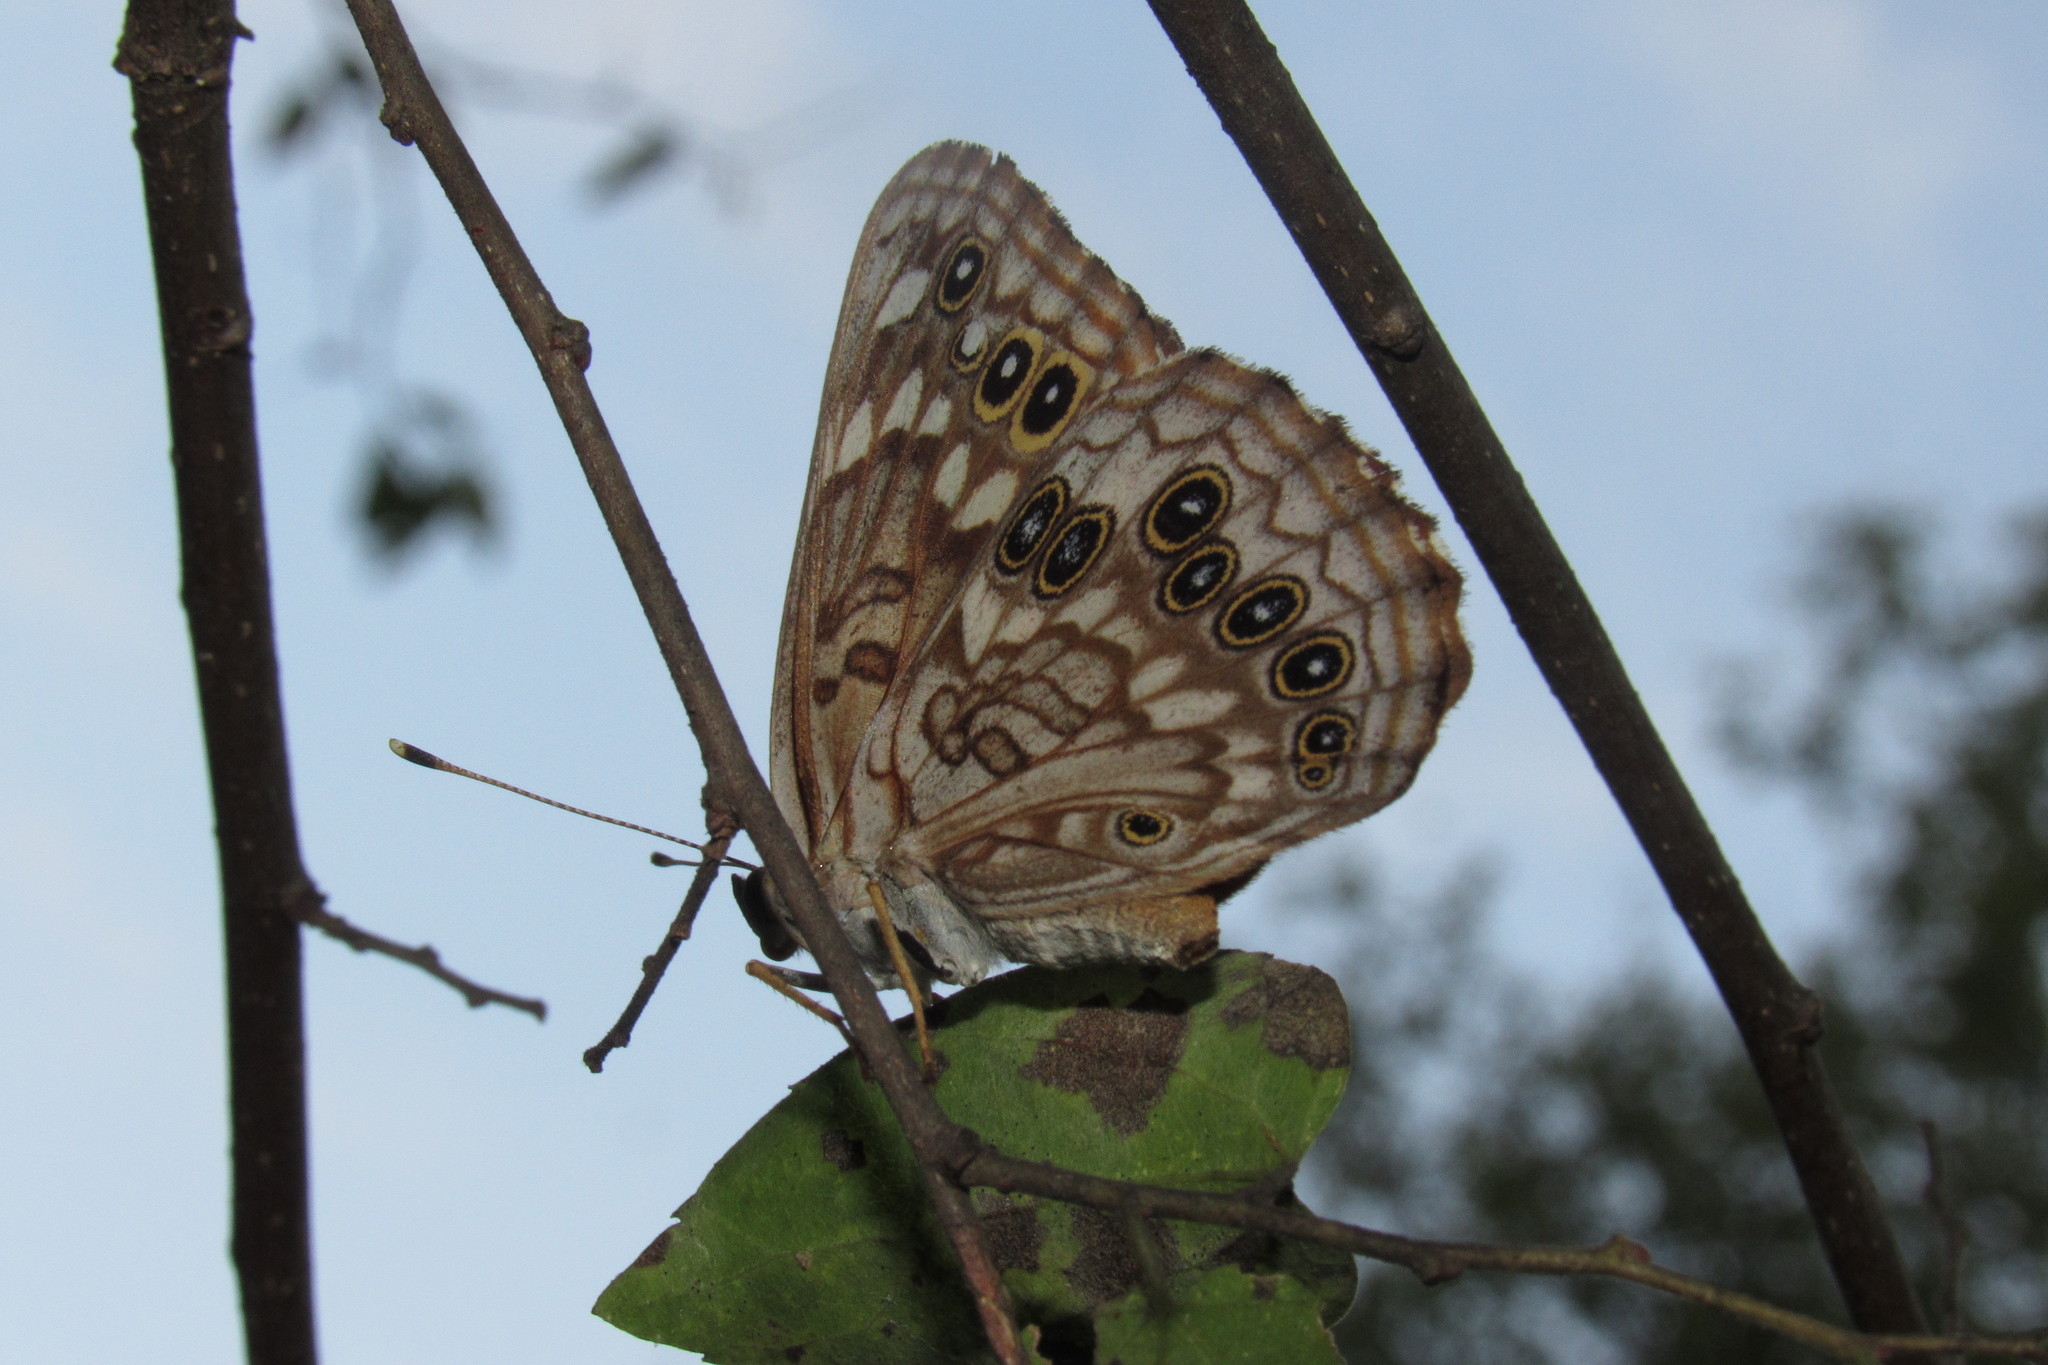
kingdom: Animalia
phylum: Arthropoda
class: Insecta
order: Lepidoptera
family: Nymphalidae
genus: Asterocampa
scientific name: Asterocampa celtis
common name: Hackberry emperor
